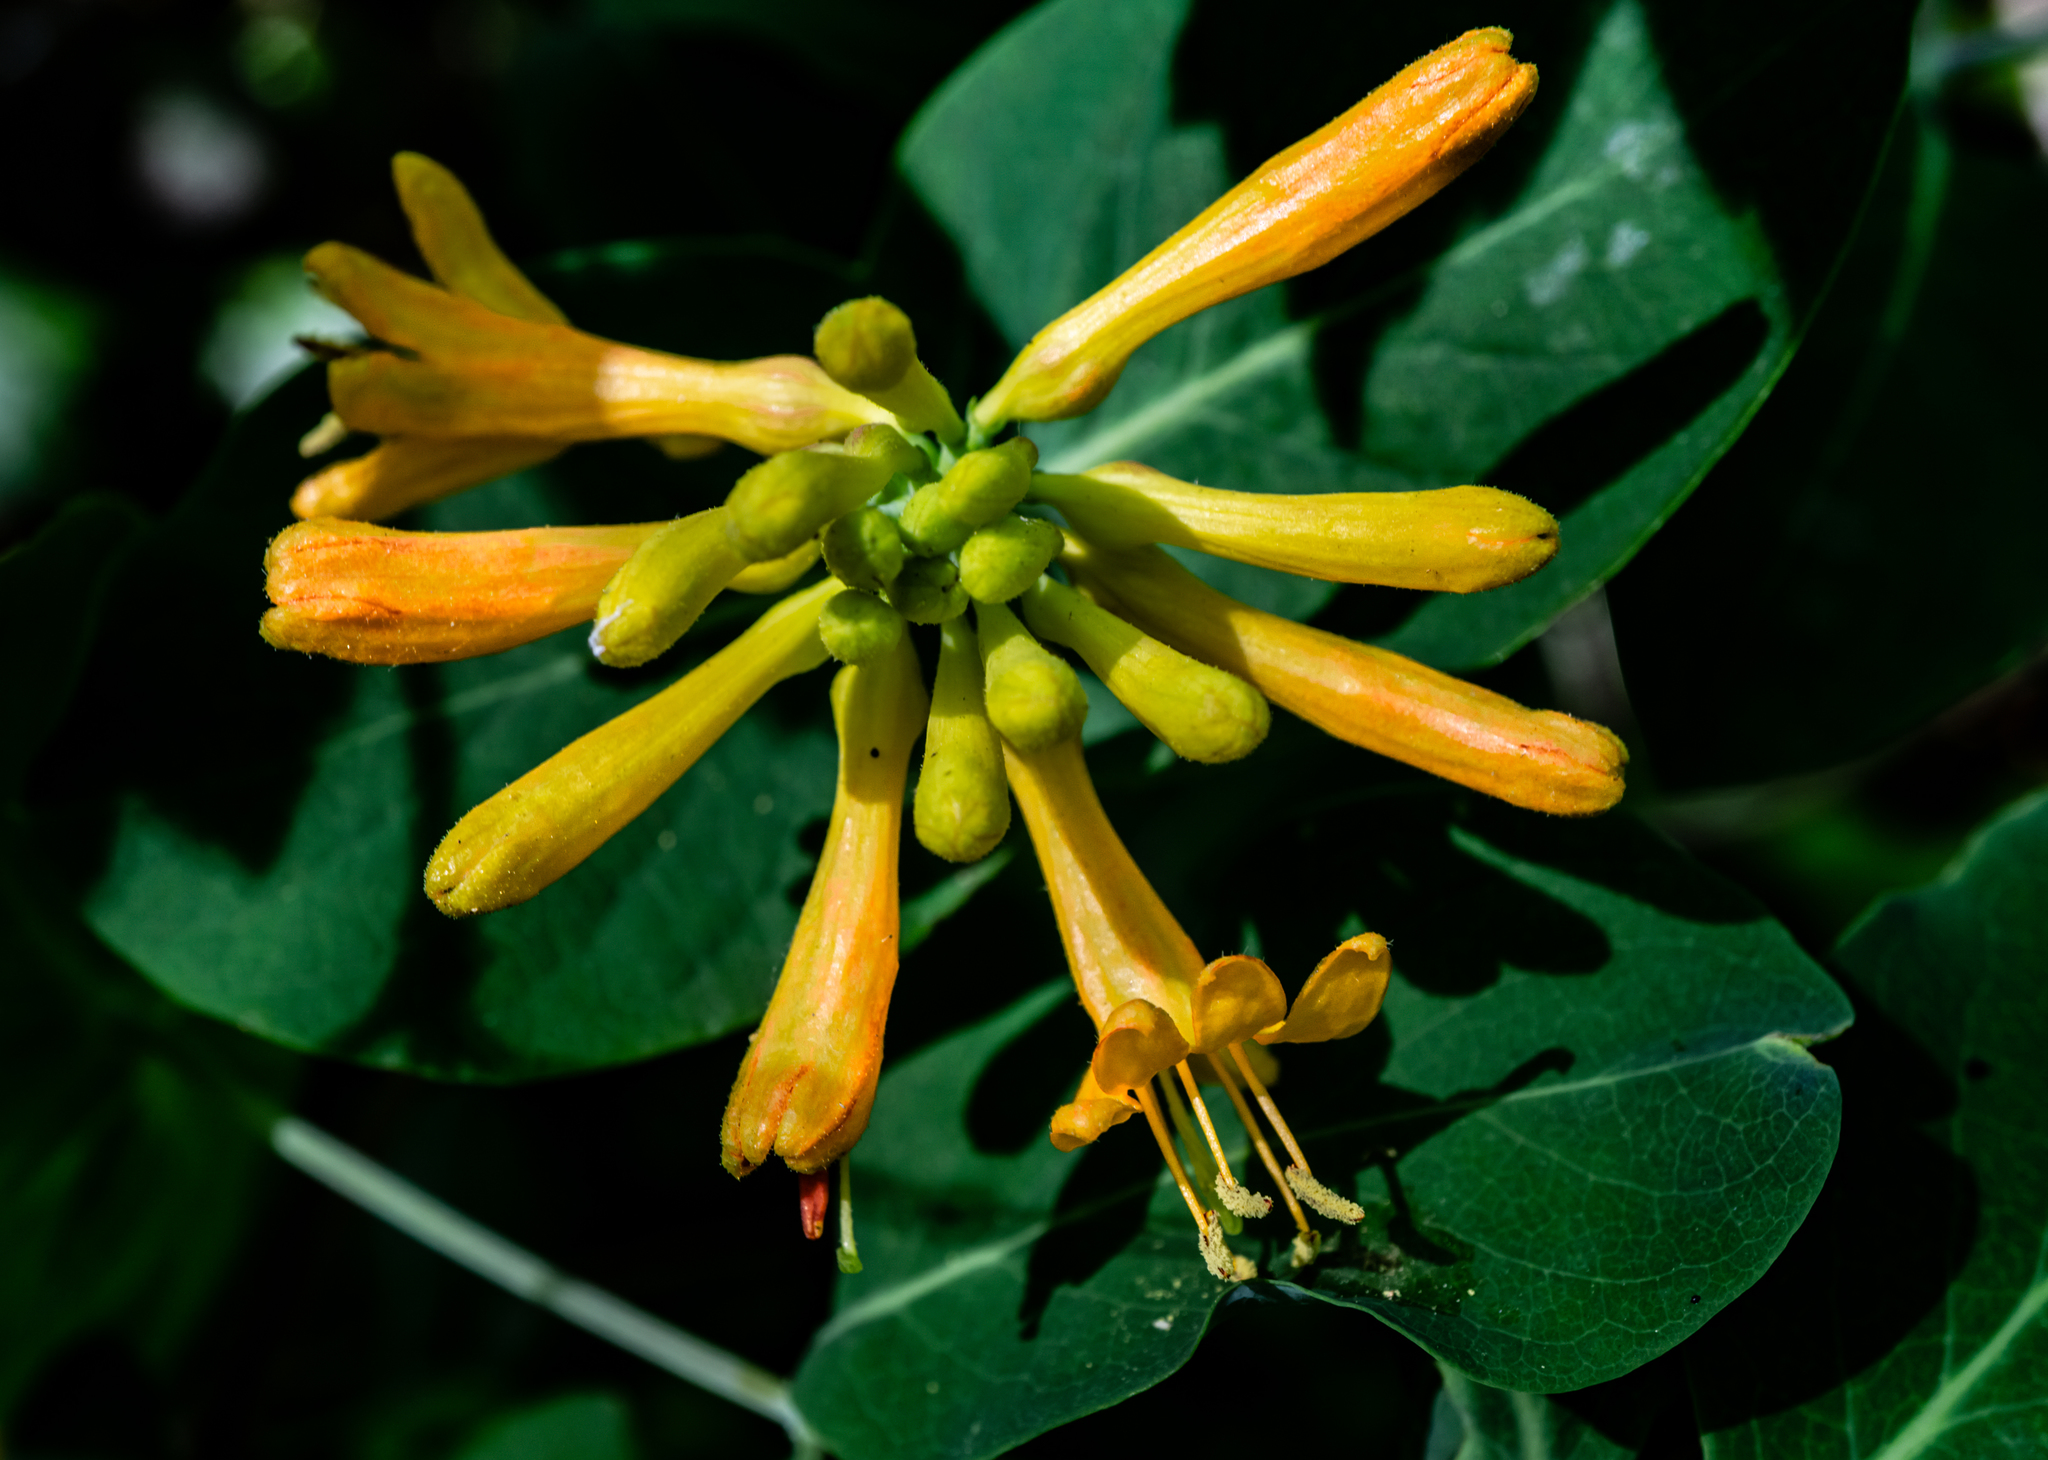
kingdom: Plantae
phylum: Tracheophyta
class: Magnoliopsida
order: Dipsacales
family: Caprifoliaceae
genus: Lonicera
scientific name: Lonicera ciliosa
